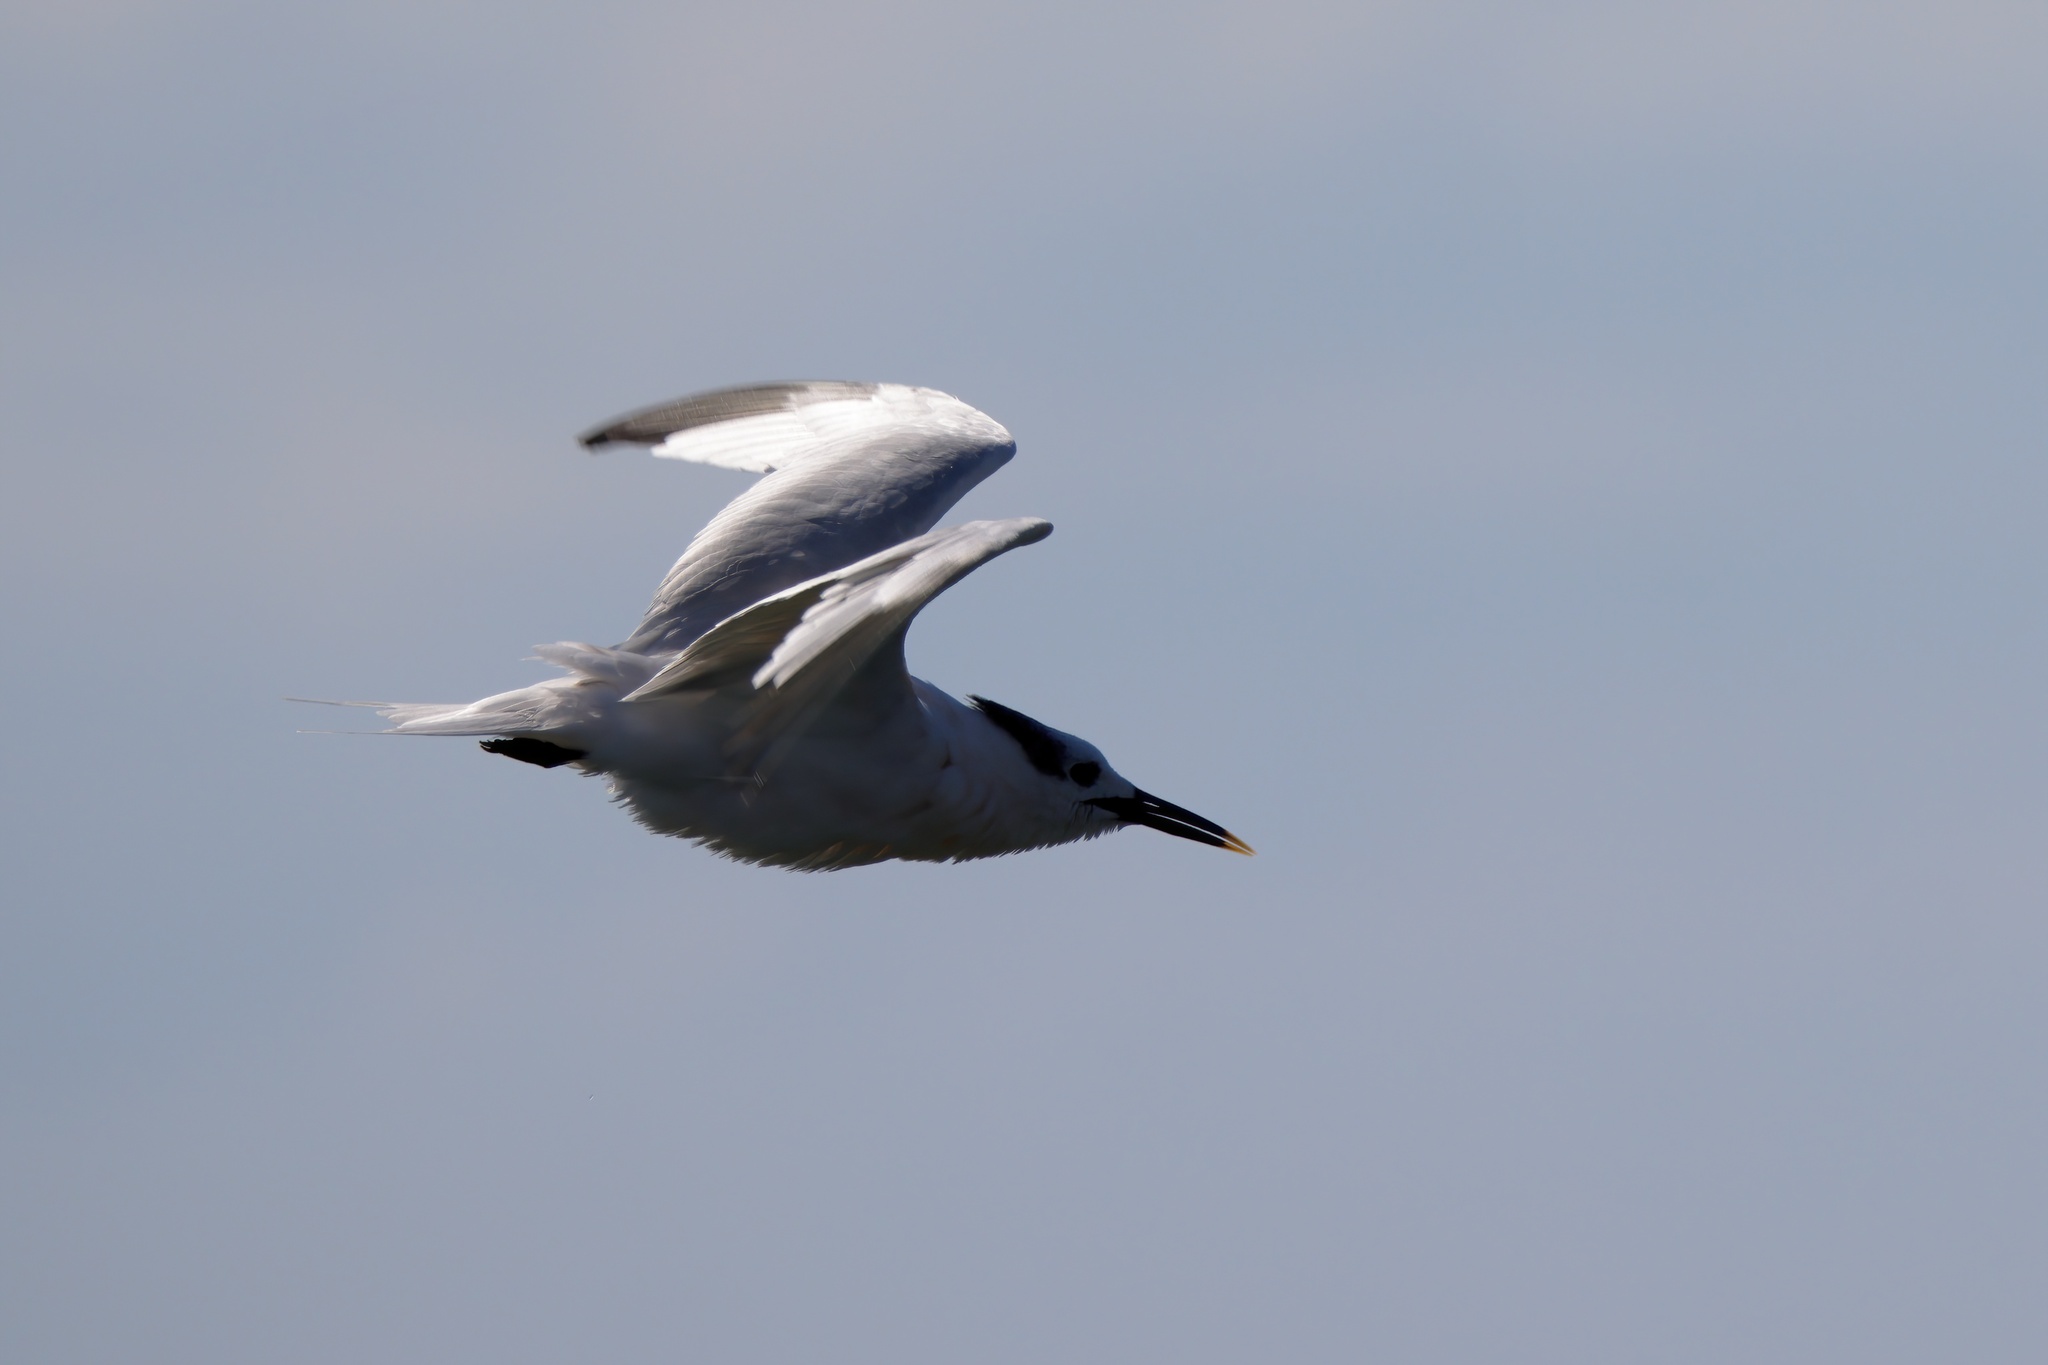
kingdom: Animalia
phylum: Chordata
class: Aves
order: Charadriiformes
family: Laridae
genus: Thalasseus
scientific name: Thalasseus sandvicensis
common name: Sandwich tern
